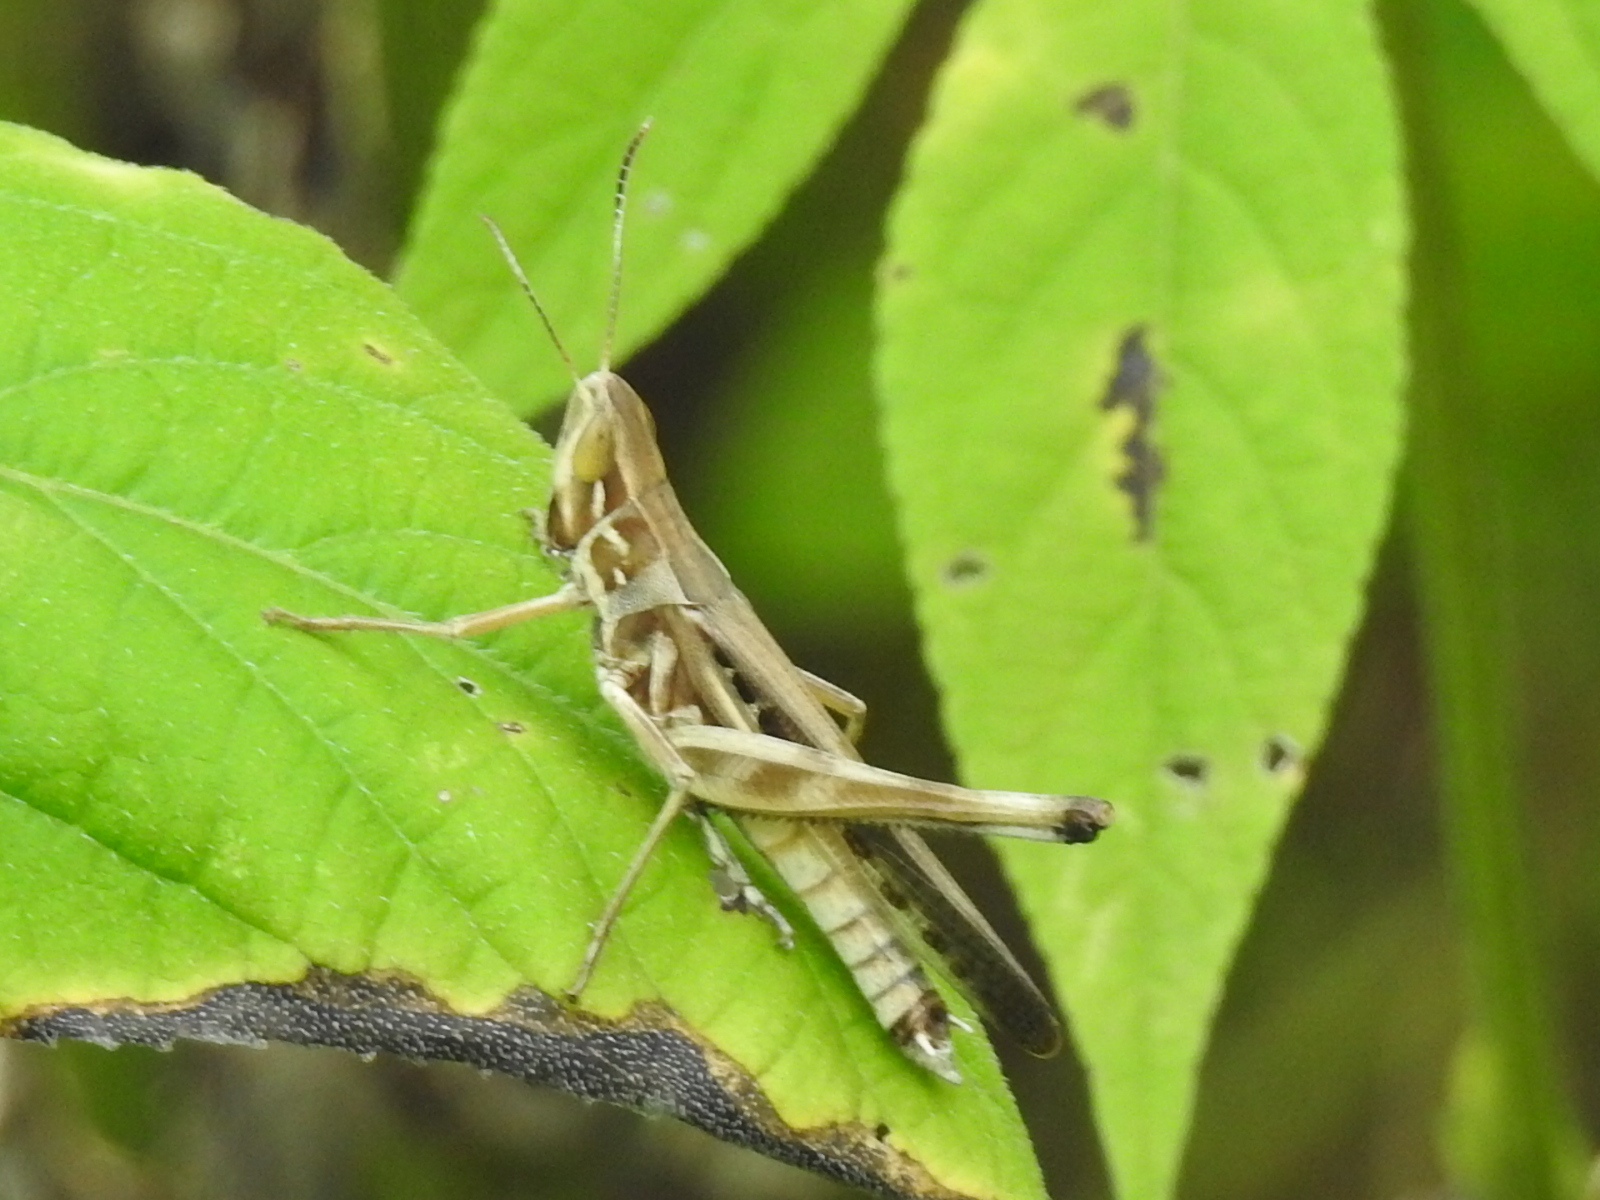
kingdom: Animalia
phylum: Arthropoda
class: Insecta
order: Orthoptera
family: Acrididae
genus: Syrbula
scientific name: Syrbula admirabilis
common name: Handsome grasshopper
